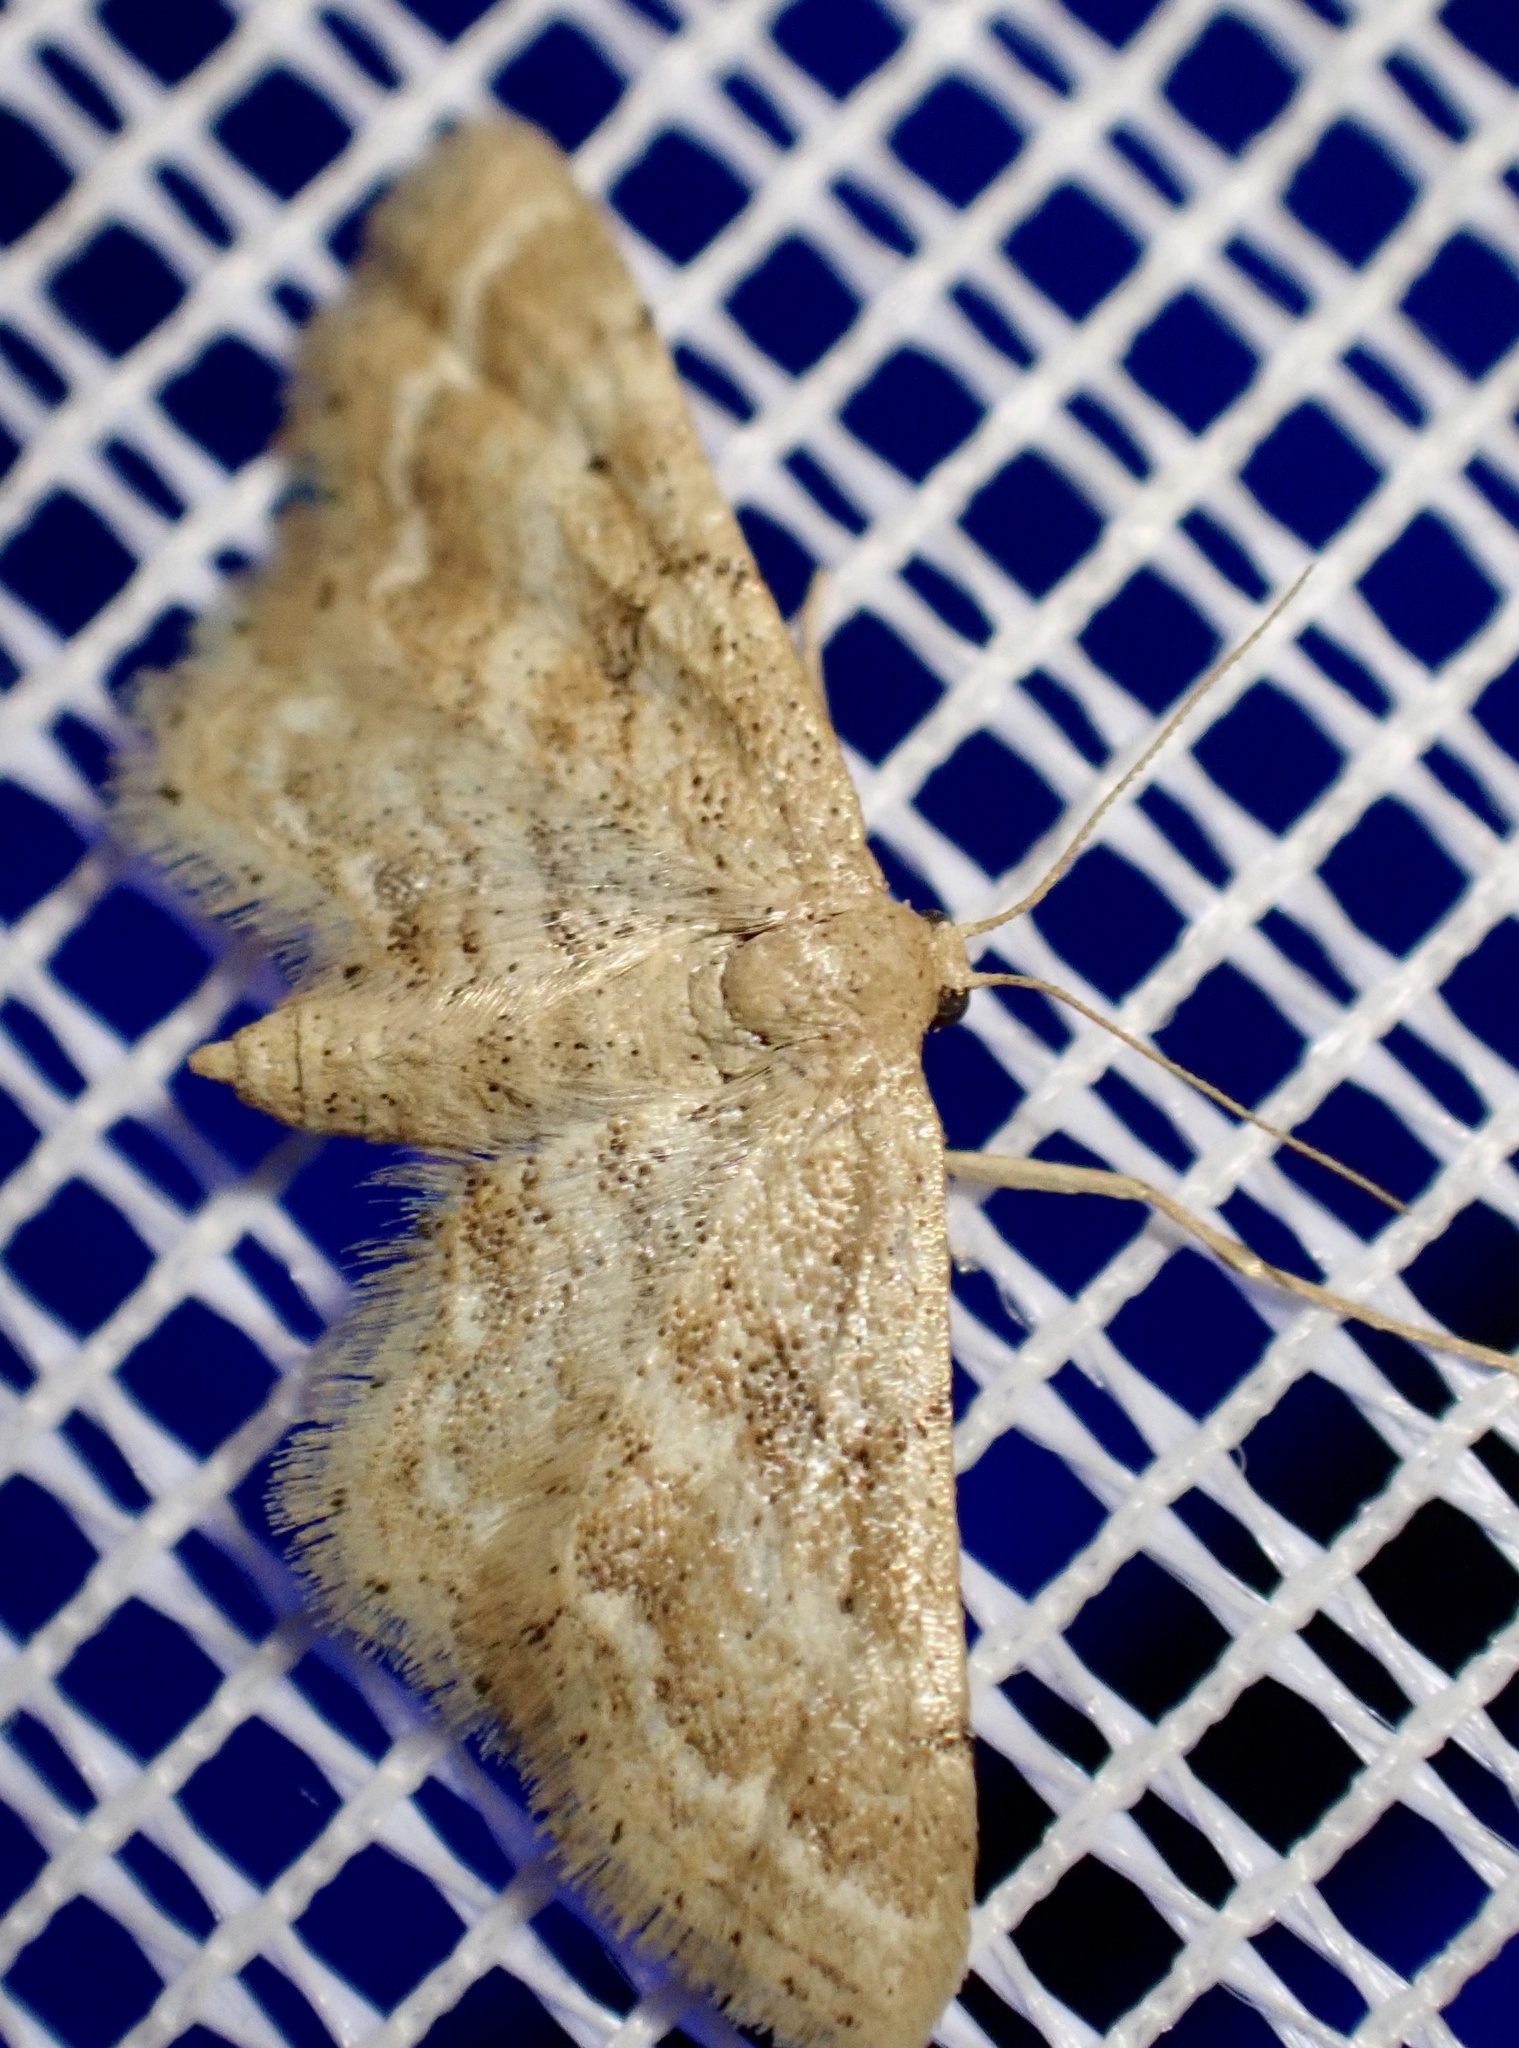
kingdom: Animalia
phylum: Arthropoda
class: Insecta
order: Lepidoptera
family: Geometridae
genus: Idaea
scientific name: Idaea fractilineata
